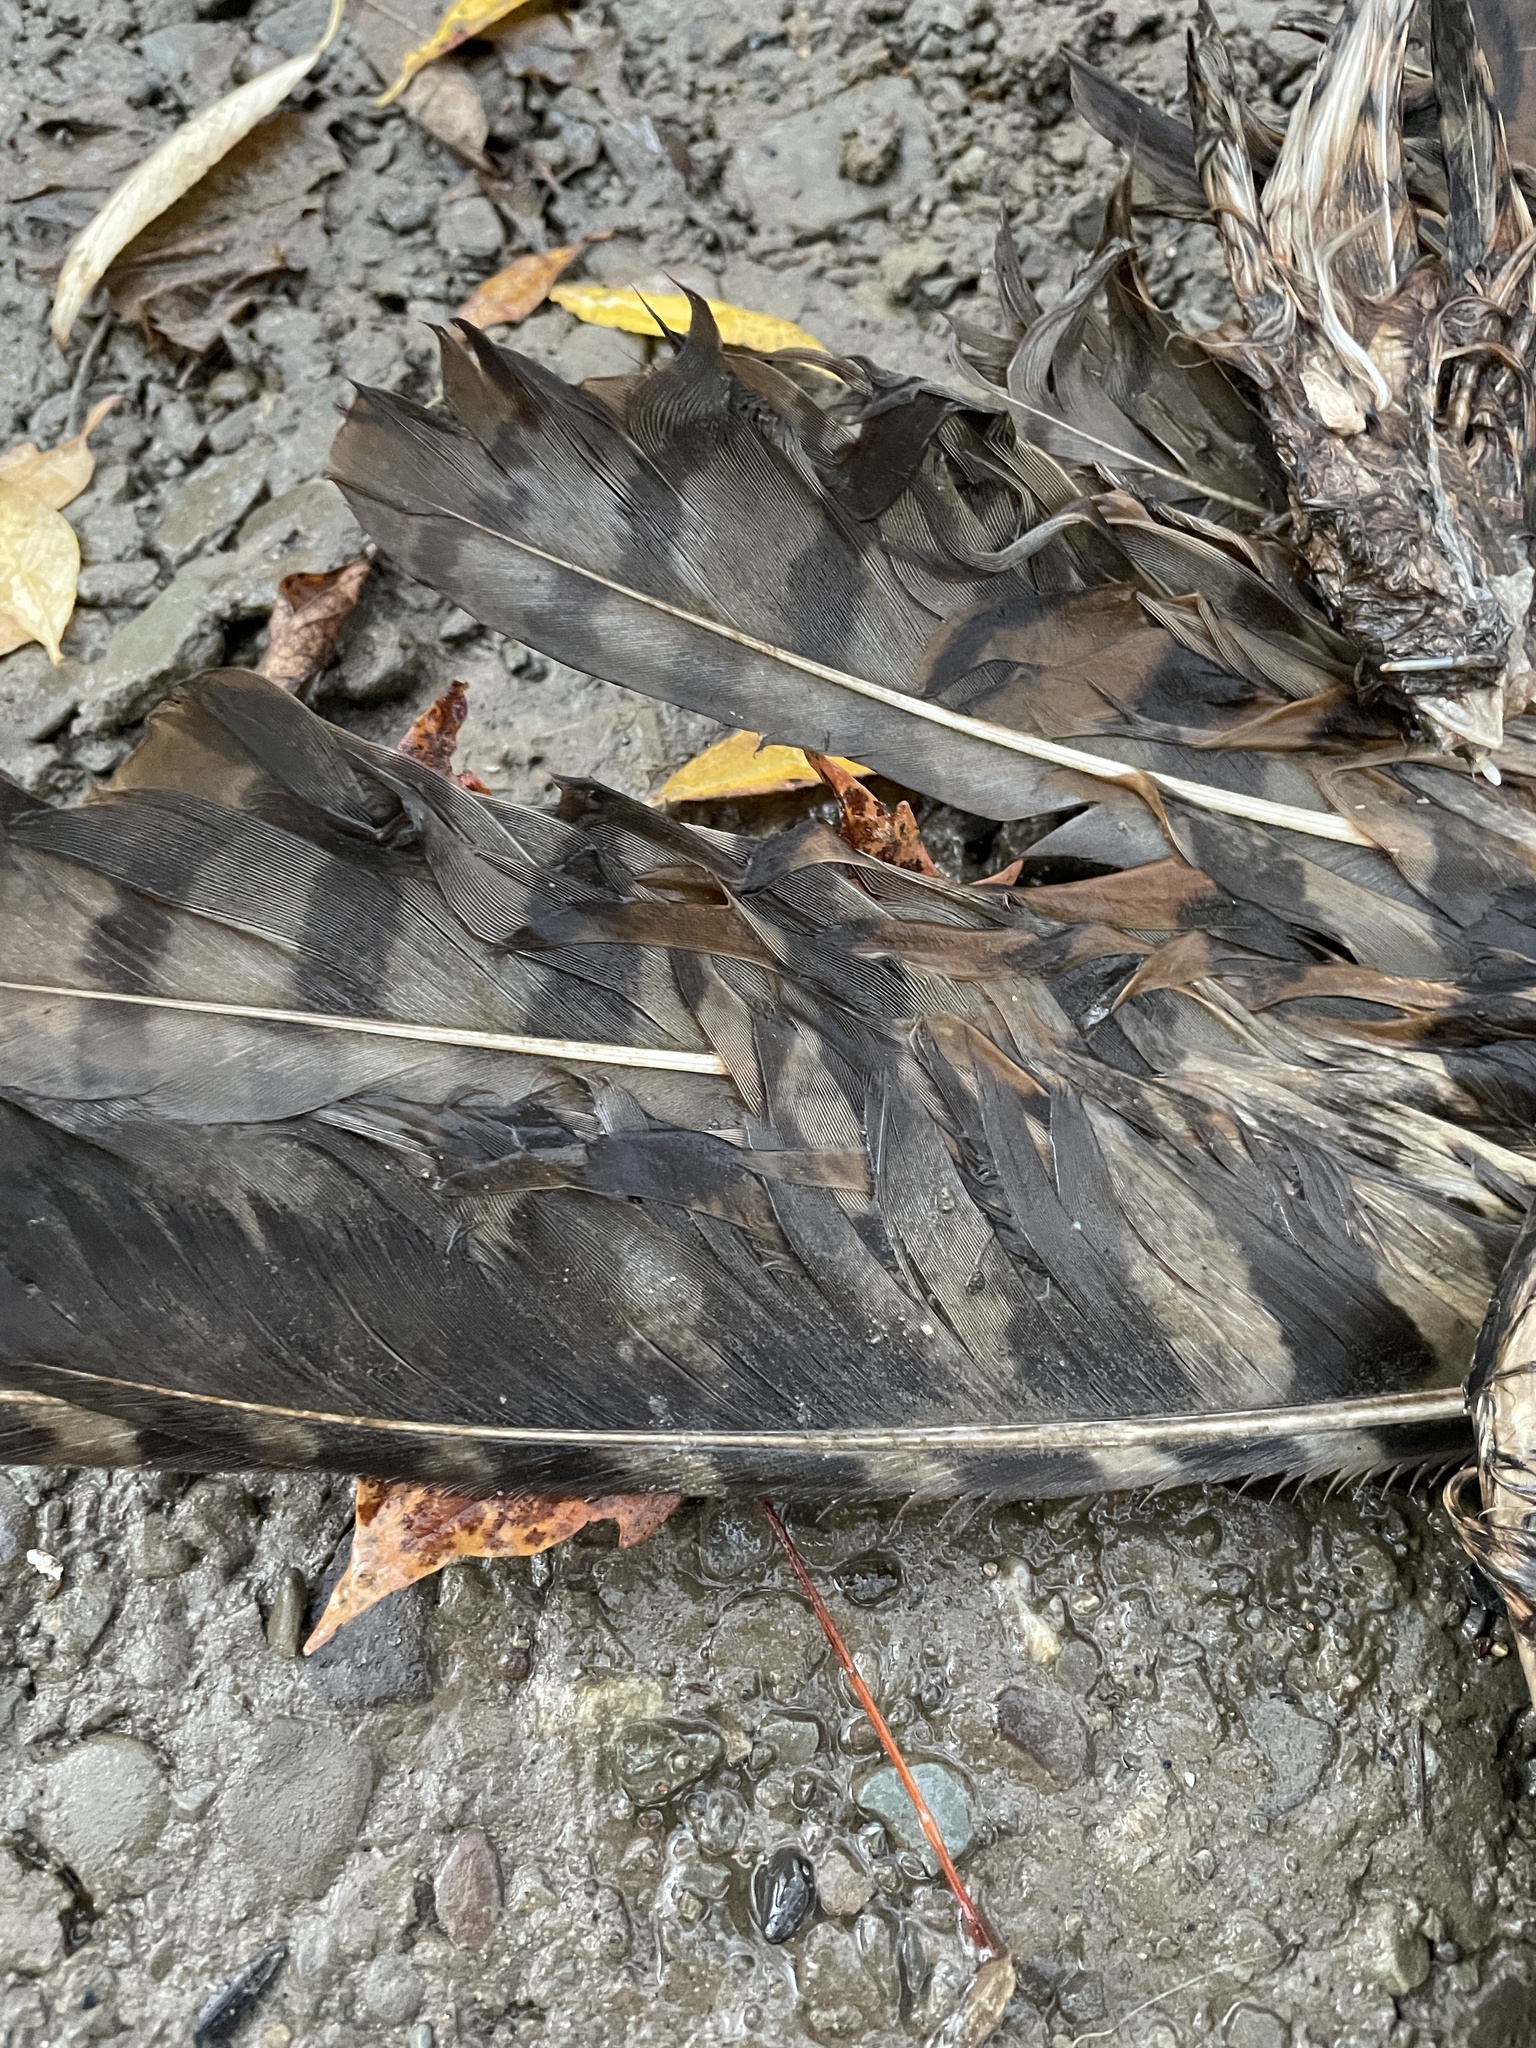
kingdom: Animalia
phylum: Chordata
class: Aves
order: Strigiformes
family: Strigidae
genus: Bubo
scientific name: Bubo virginianus
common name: Great horned owl
